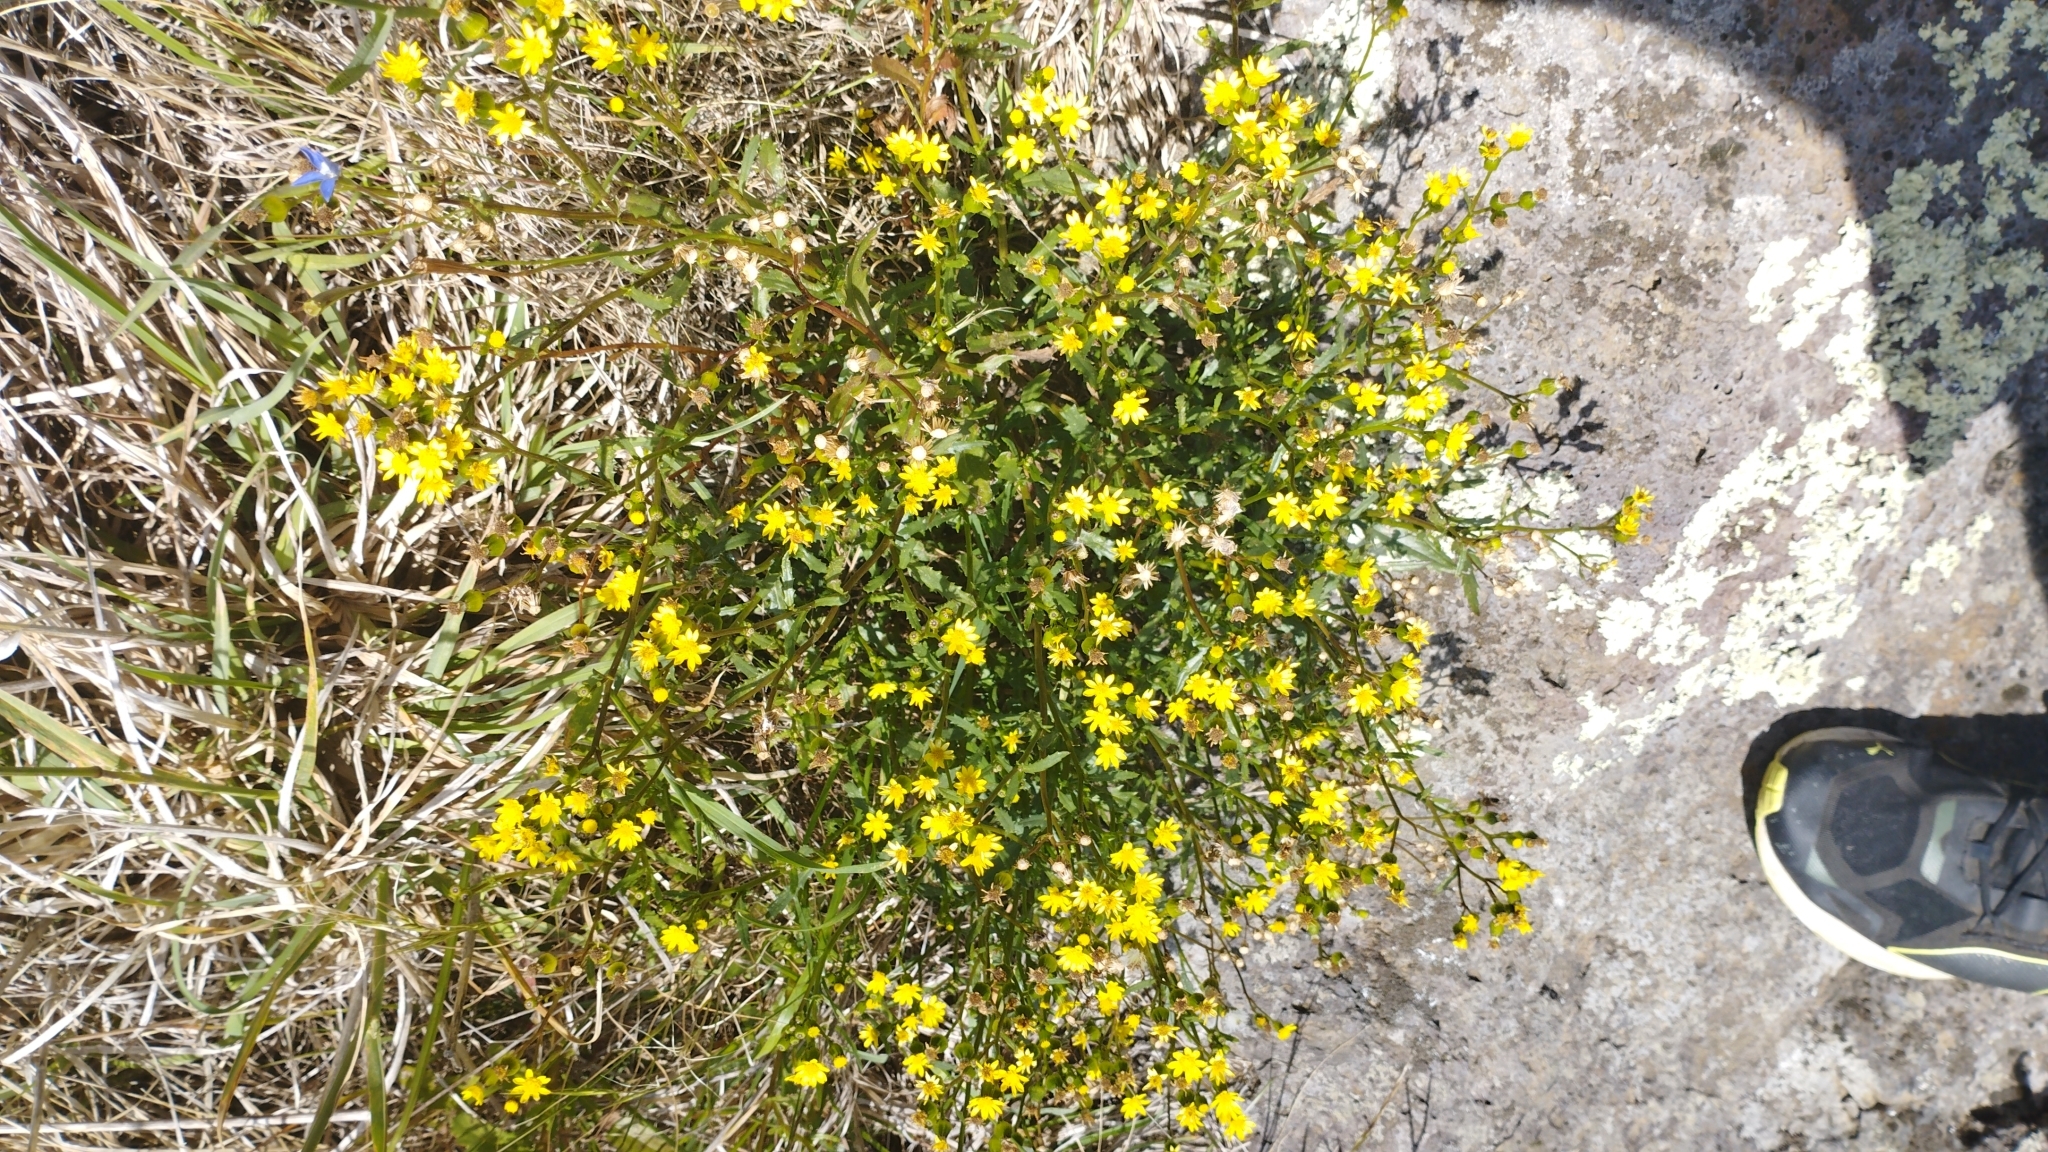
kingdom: Plantae
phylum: Tracheophyta
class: Magnoliopsida
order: Asterales
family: Asteraceae
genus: Senecio
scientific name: Senecio matatini
